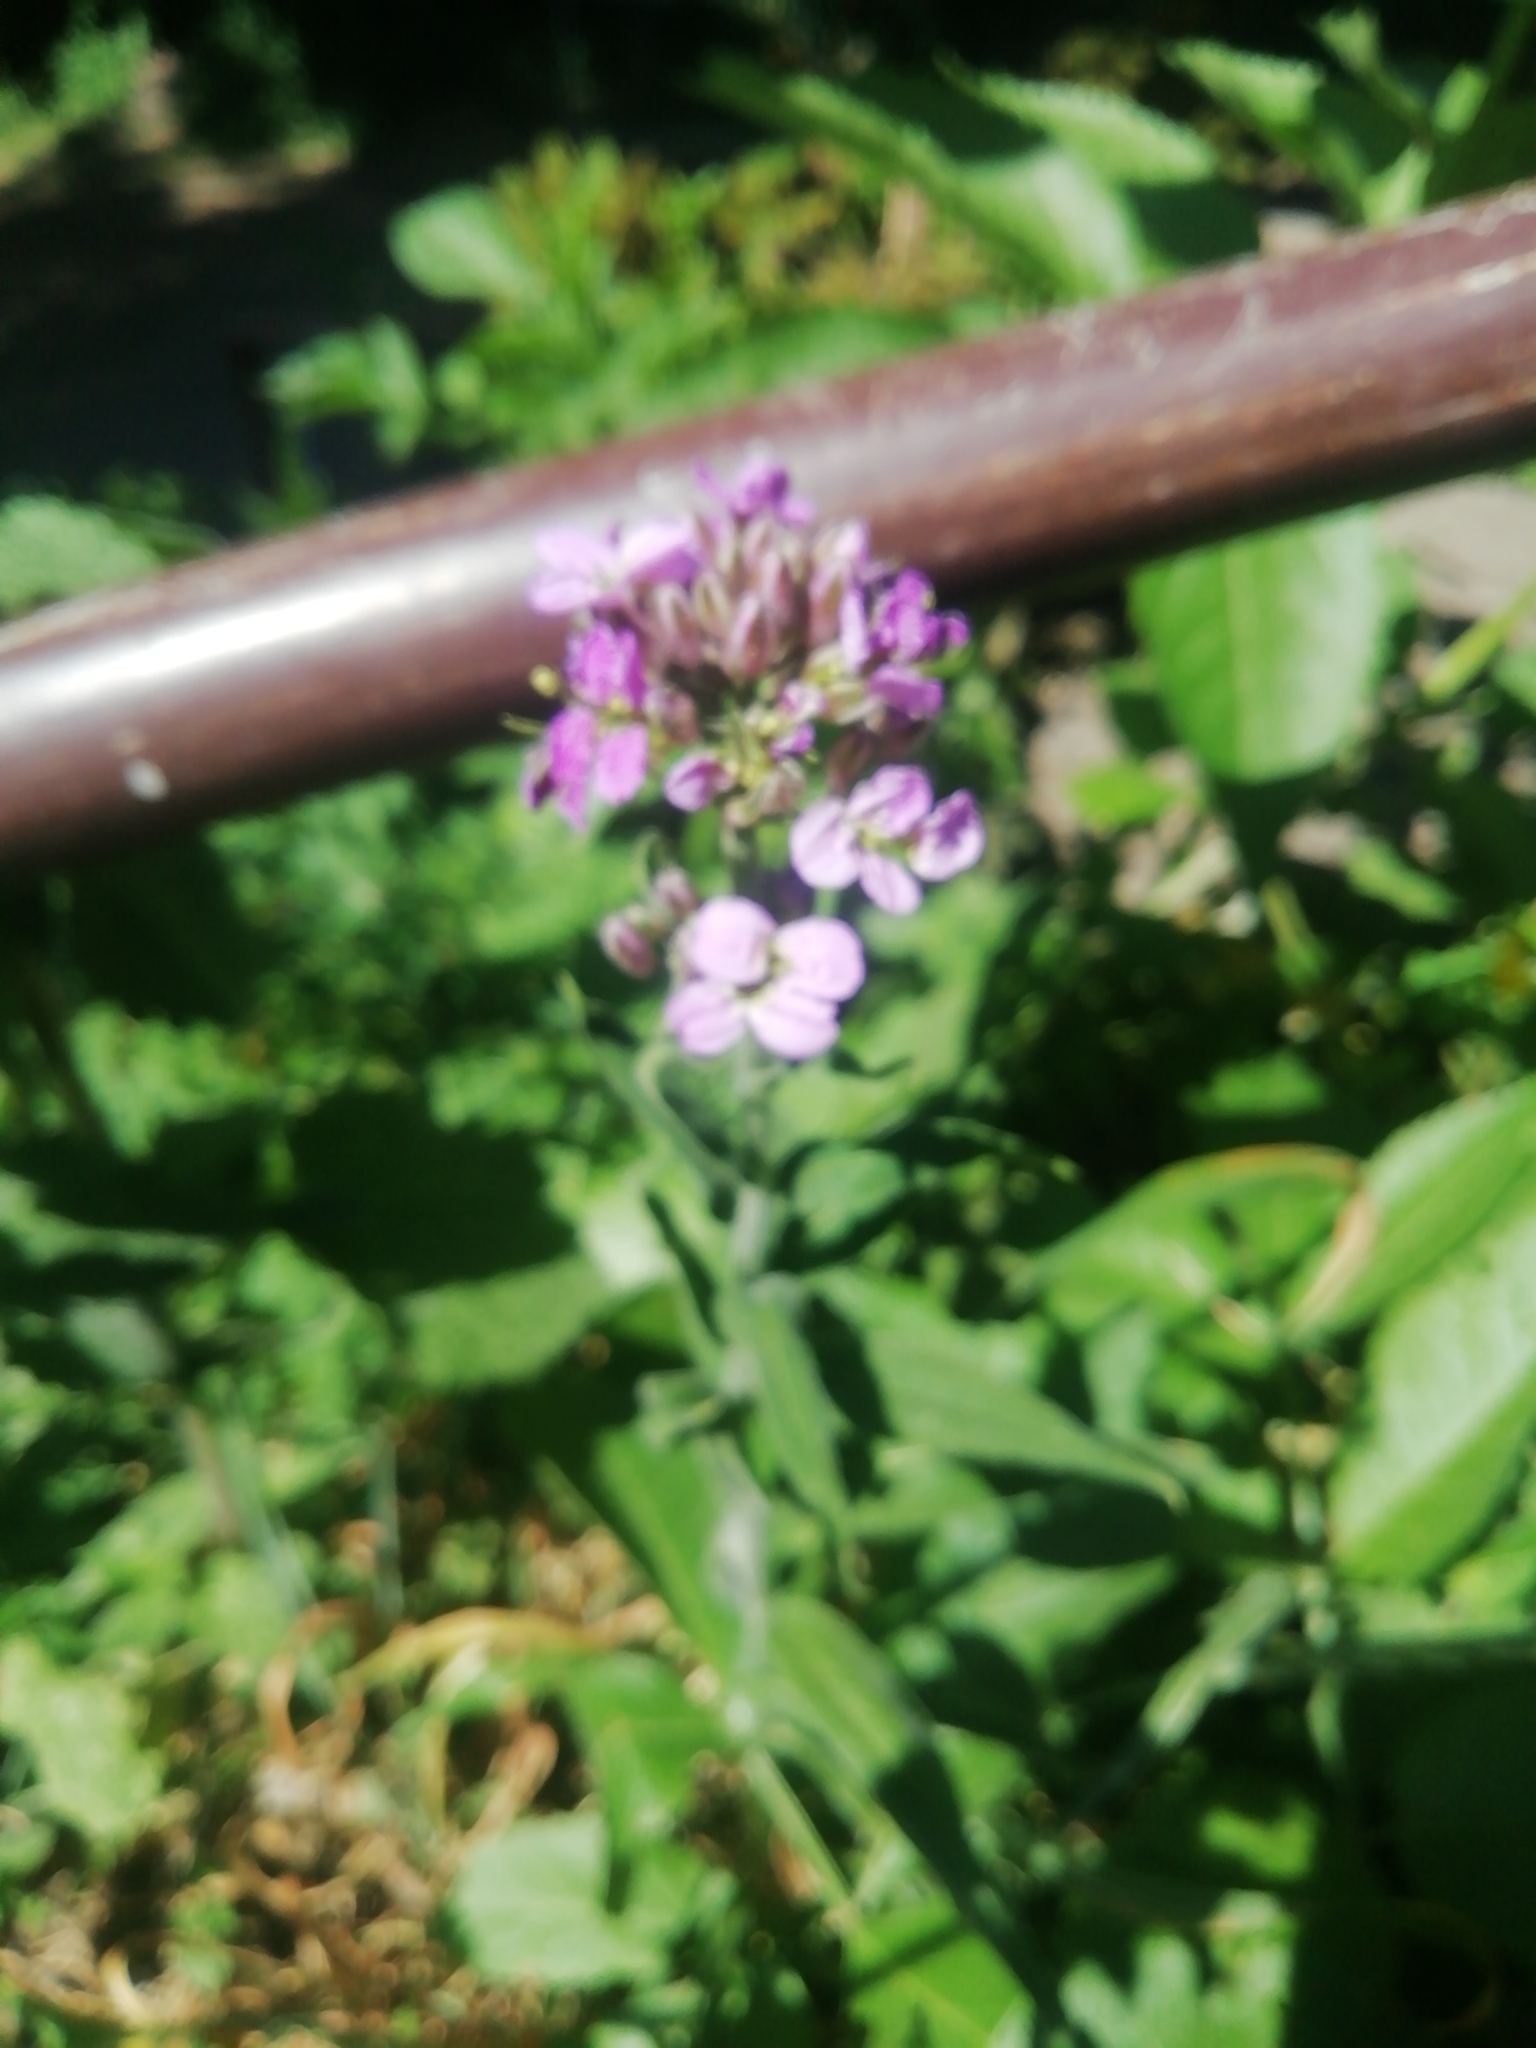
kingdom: Plantae
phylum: Tracheophyta
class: Magnoliopsida
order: Brassicales
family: Brassicaceae
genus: Hesperis
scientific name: Hesperis matronalis
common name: Dame's-violet
